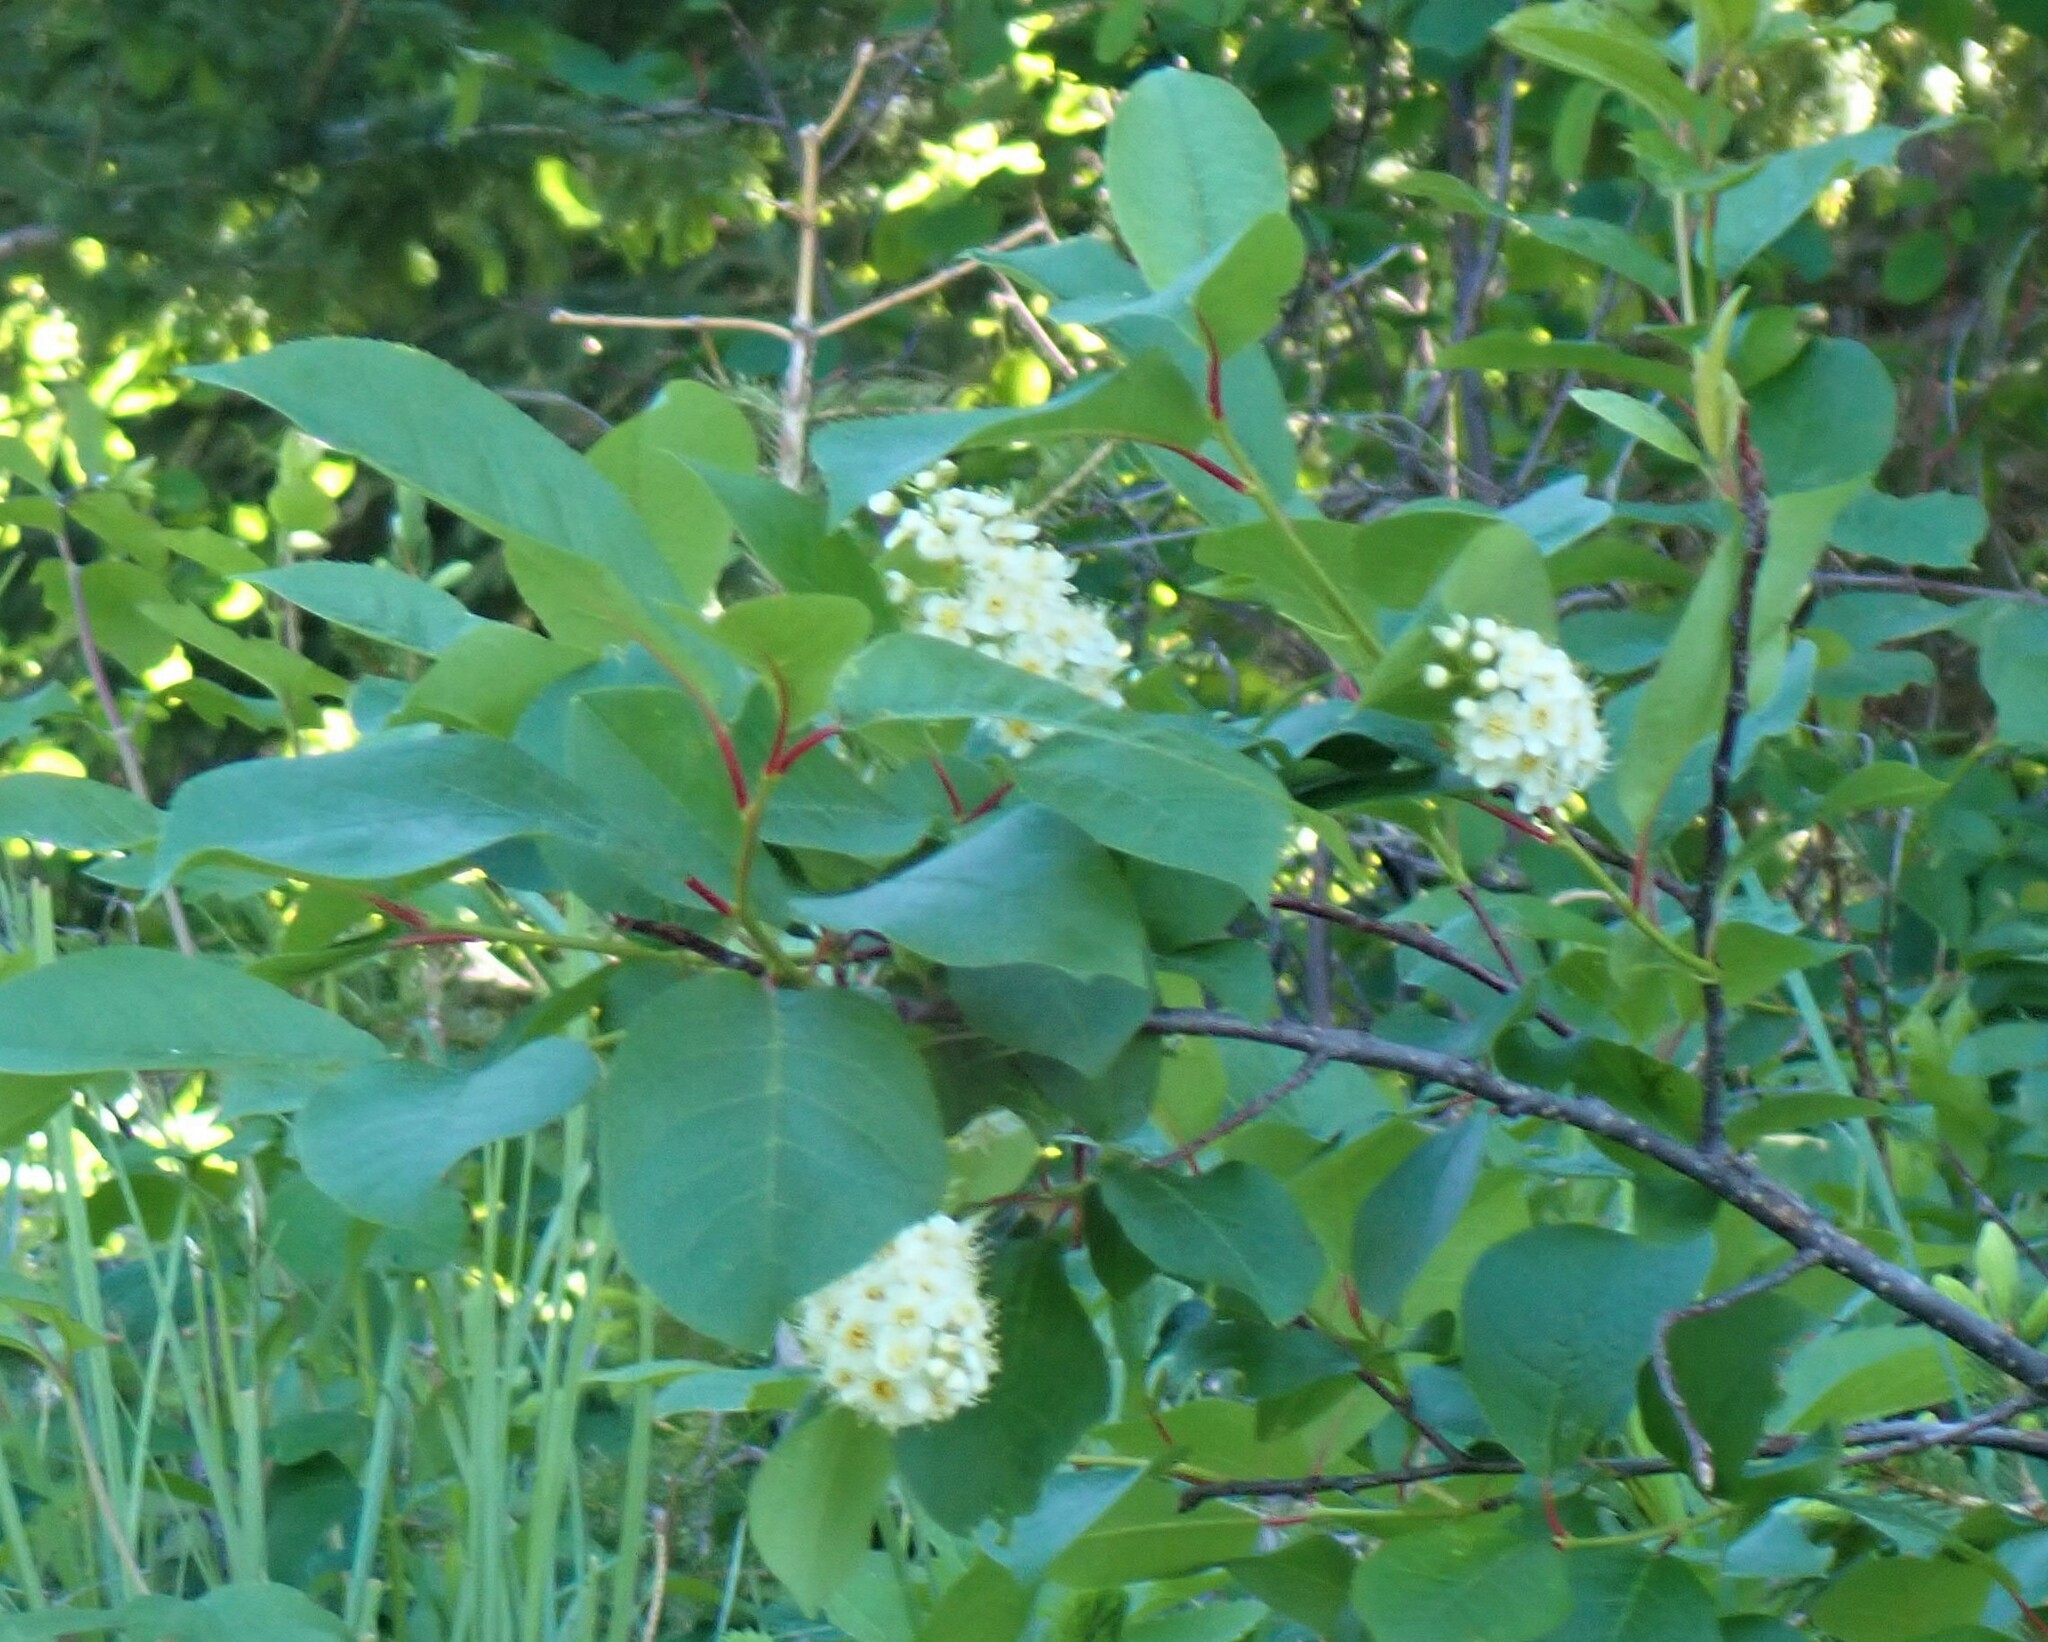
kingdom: Plantae
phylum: Tracheophyta
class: Magnoliopsida
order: Rosales
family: Rosaceae
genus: Prunus
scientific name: Prunus virginiana
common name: Chokecherry
